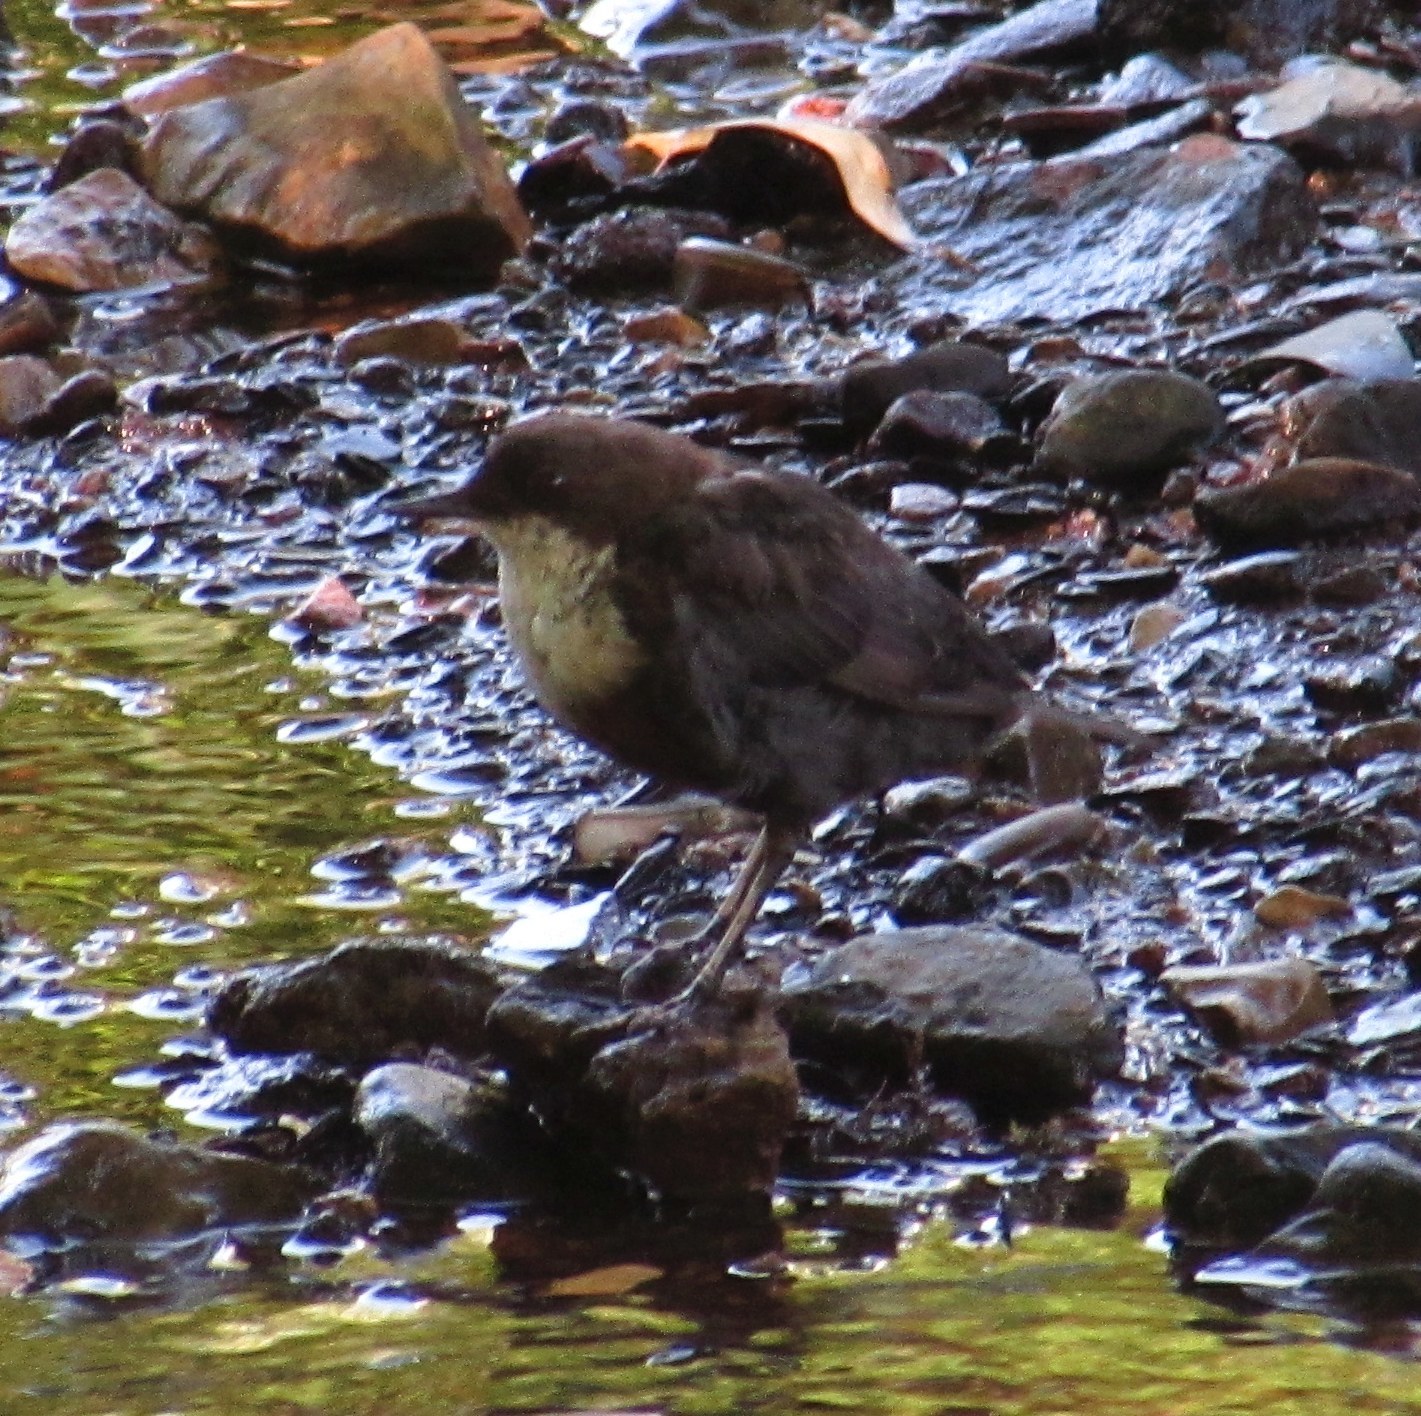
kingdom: Animalia
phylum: Chordata
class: Aves
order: Passeriformes
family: Cinclidae
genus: Cinclus
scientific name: Cinclus cinclus
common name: White-throated dipper
